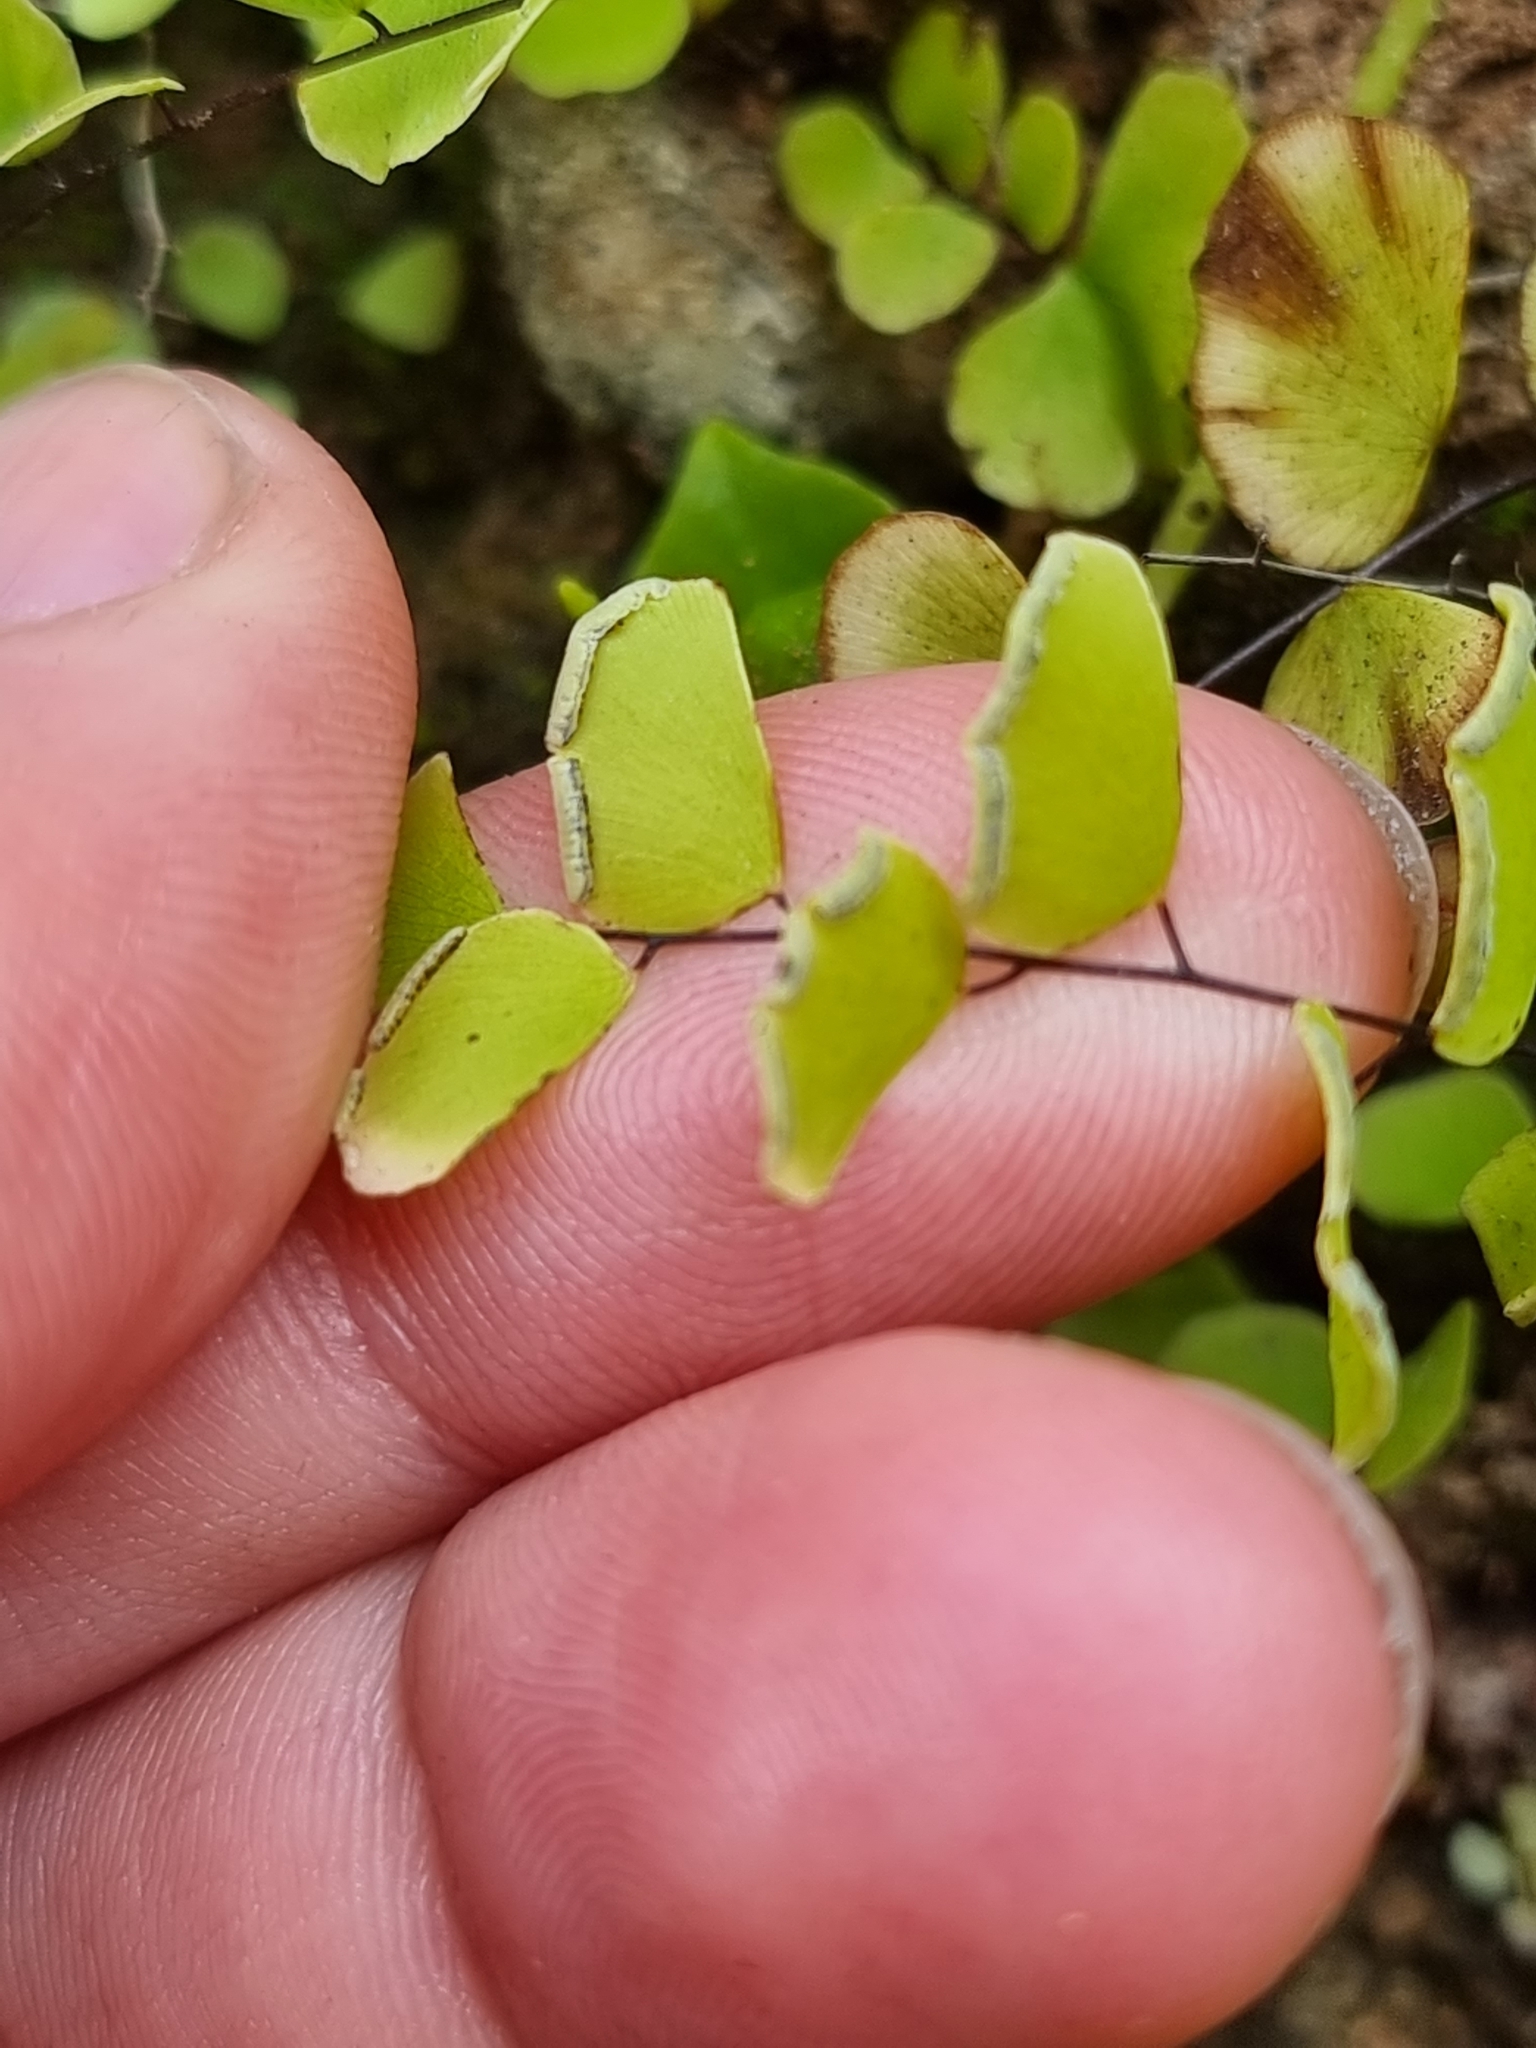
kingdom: Plantae
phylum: Tracheophyta
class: Polypodiopsida
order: Polypodiales
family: Pteridaceae
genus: Adiantum
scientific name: Adiantum philippense
